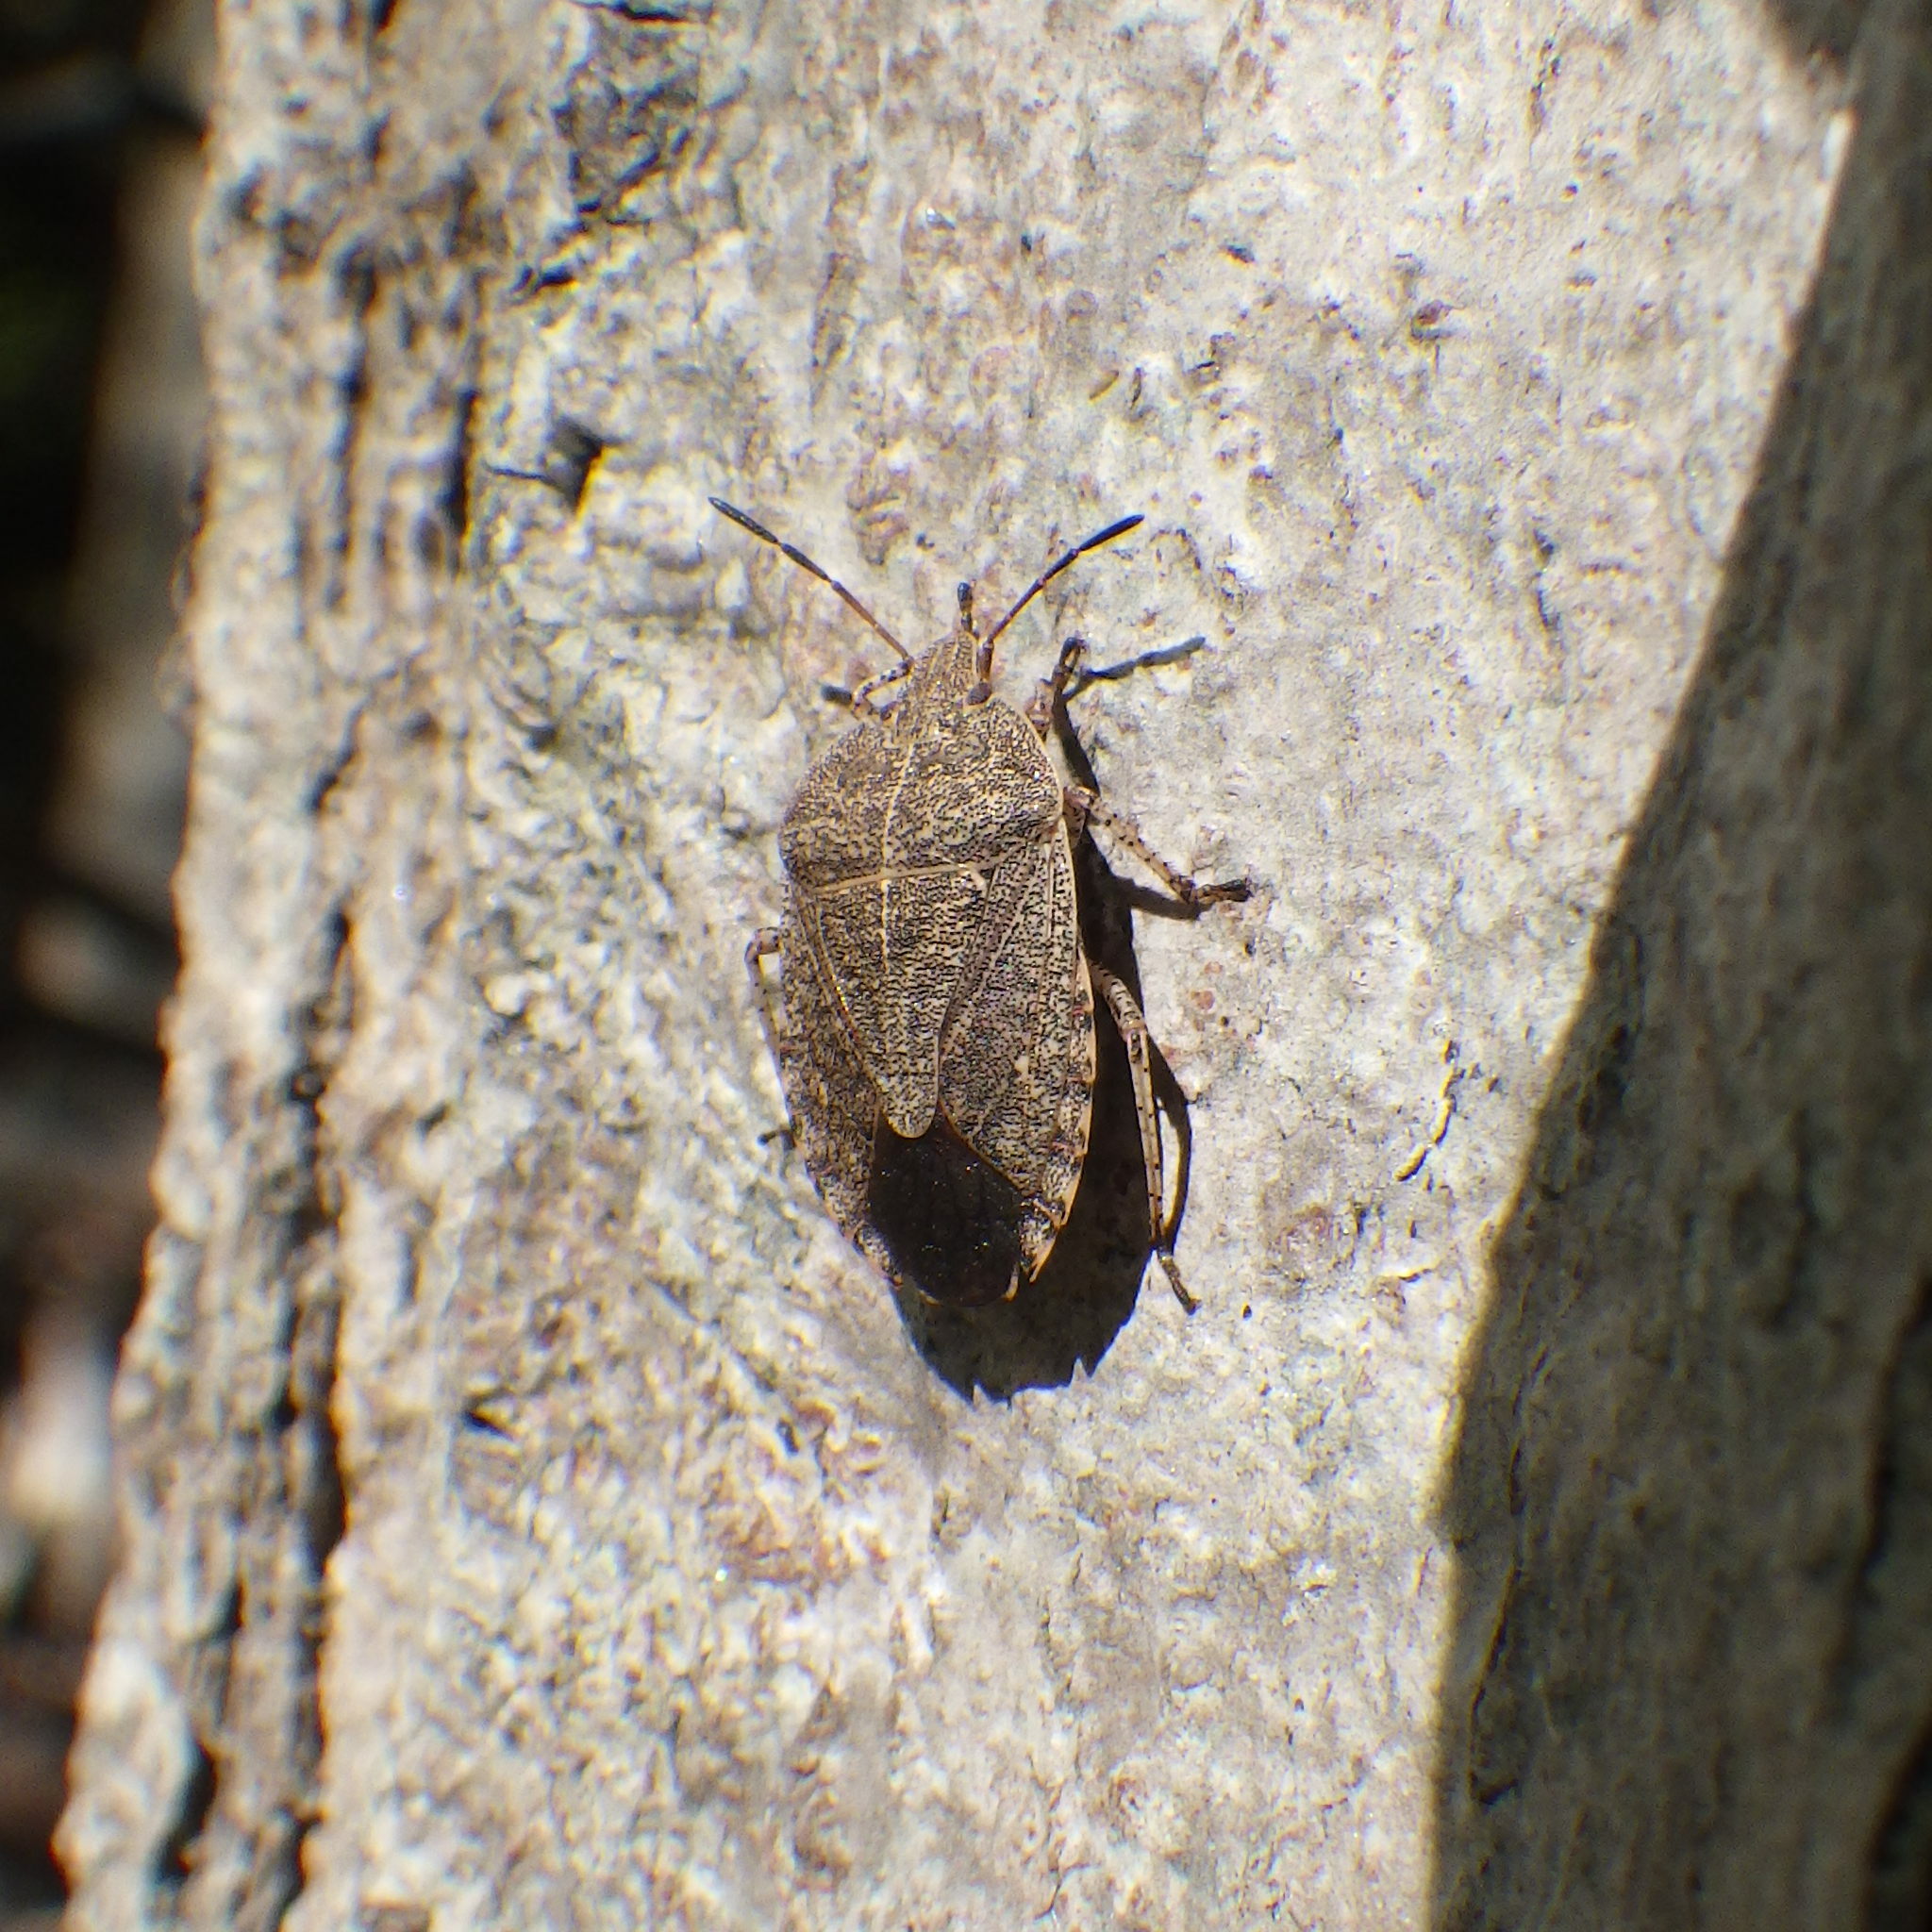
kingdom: Animalia
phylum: Arthropoda
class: Insecta
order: Hemiptera
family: Pentatomidae
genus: Menecles
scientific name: Menecles insertus
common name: Elf shoe stink bug
